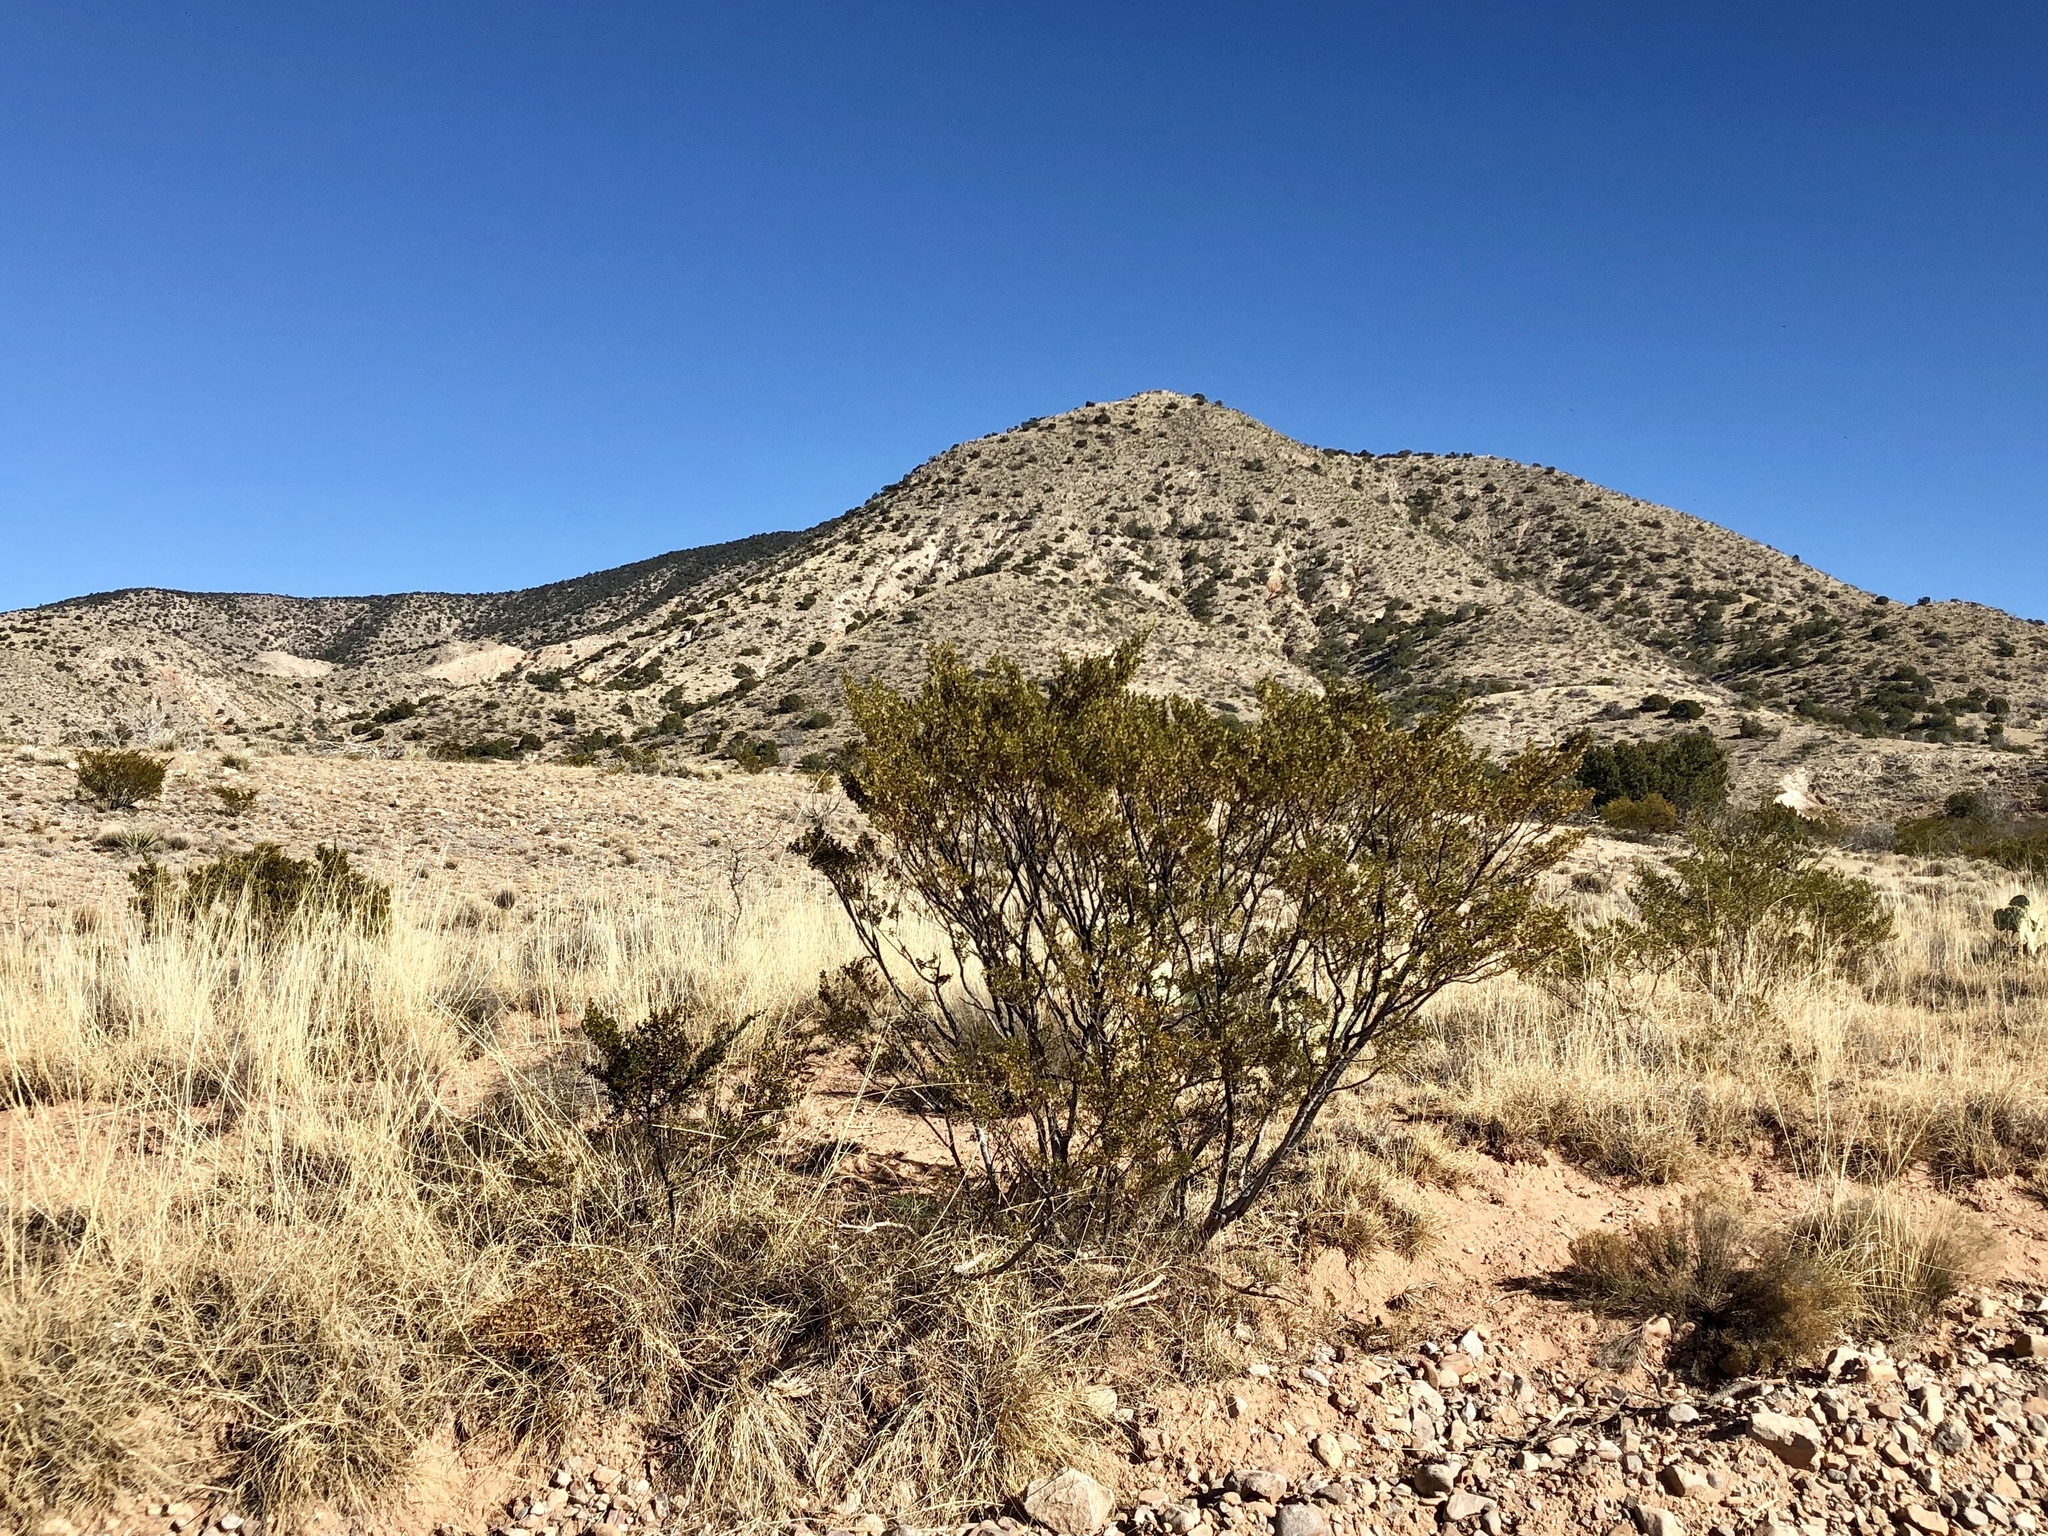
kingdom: Plantae
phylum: Tracheophyta
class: Magnoliopsida
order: Zygophyllales
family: Zygophyllaceae
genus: Larrea
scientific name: Larrea tridentata
